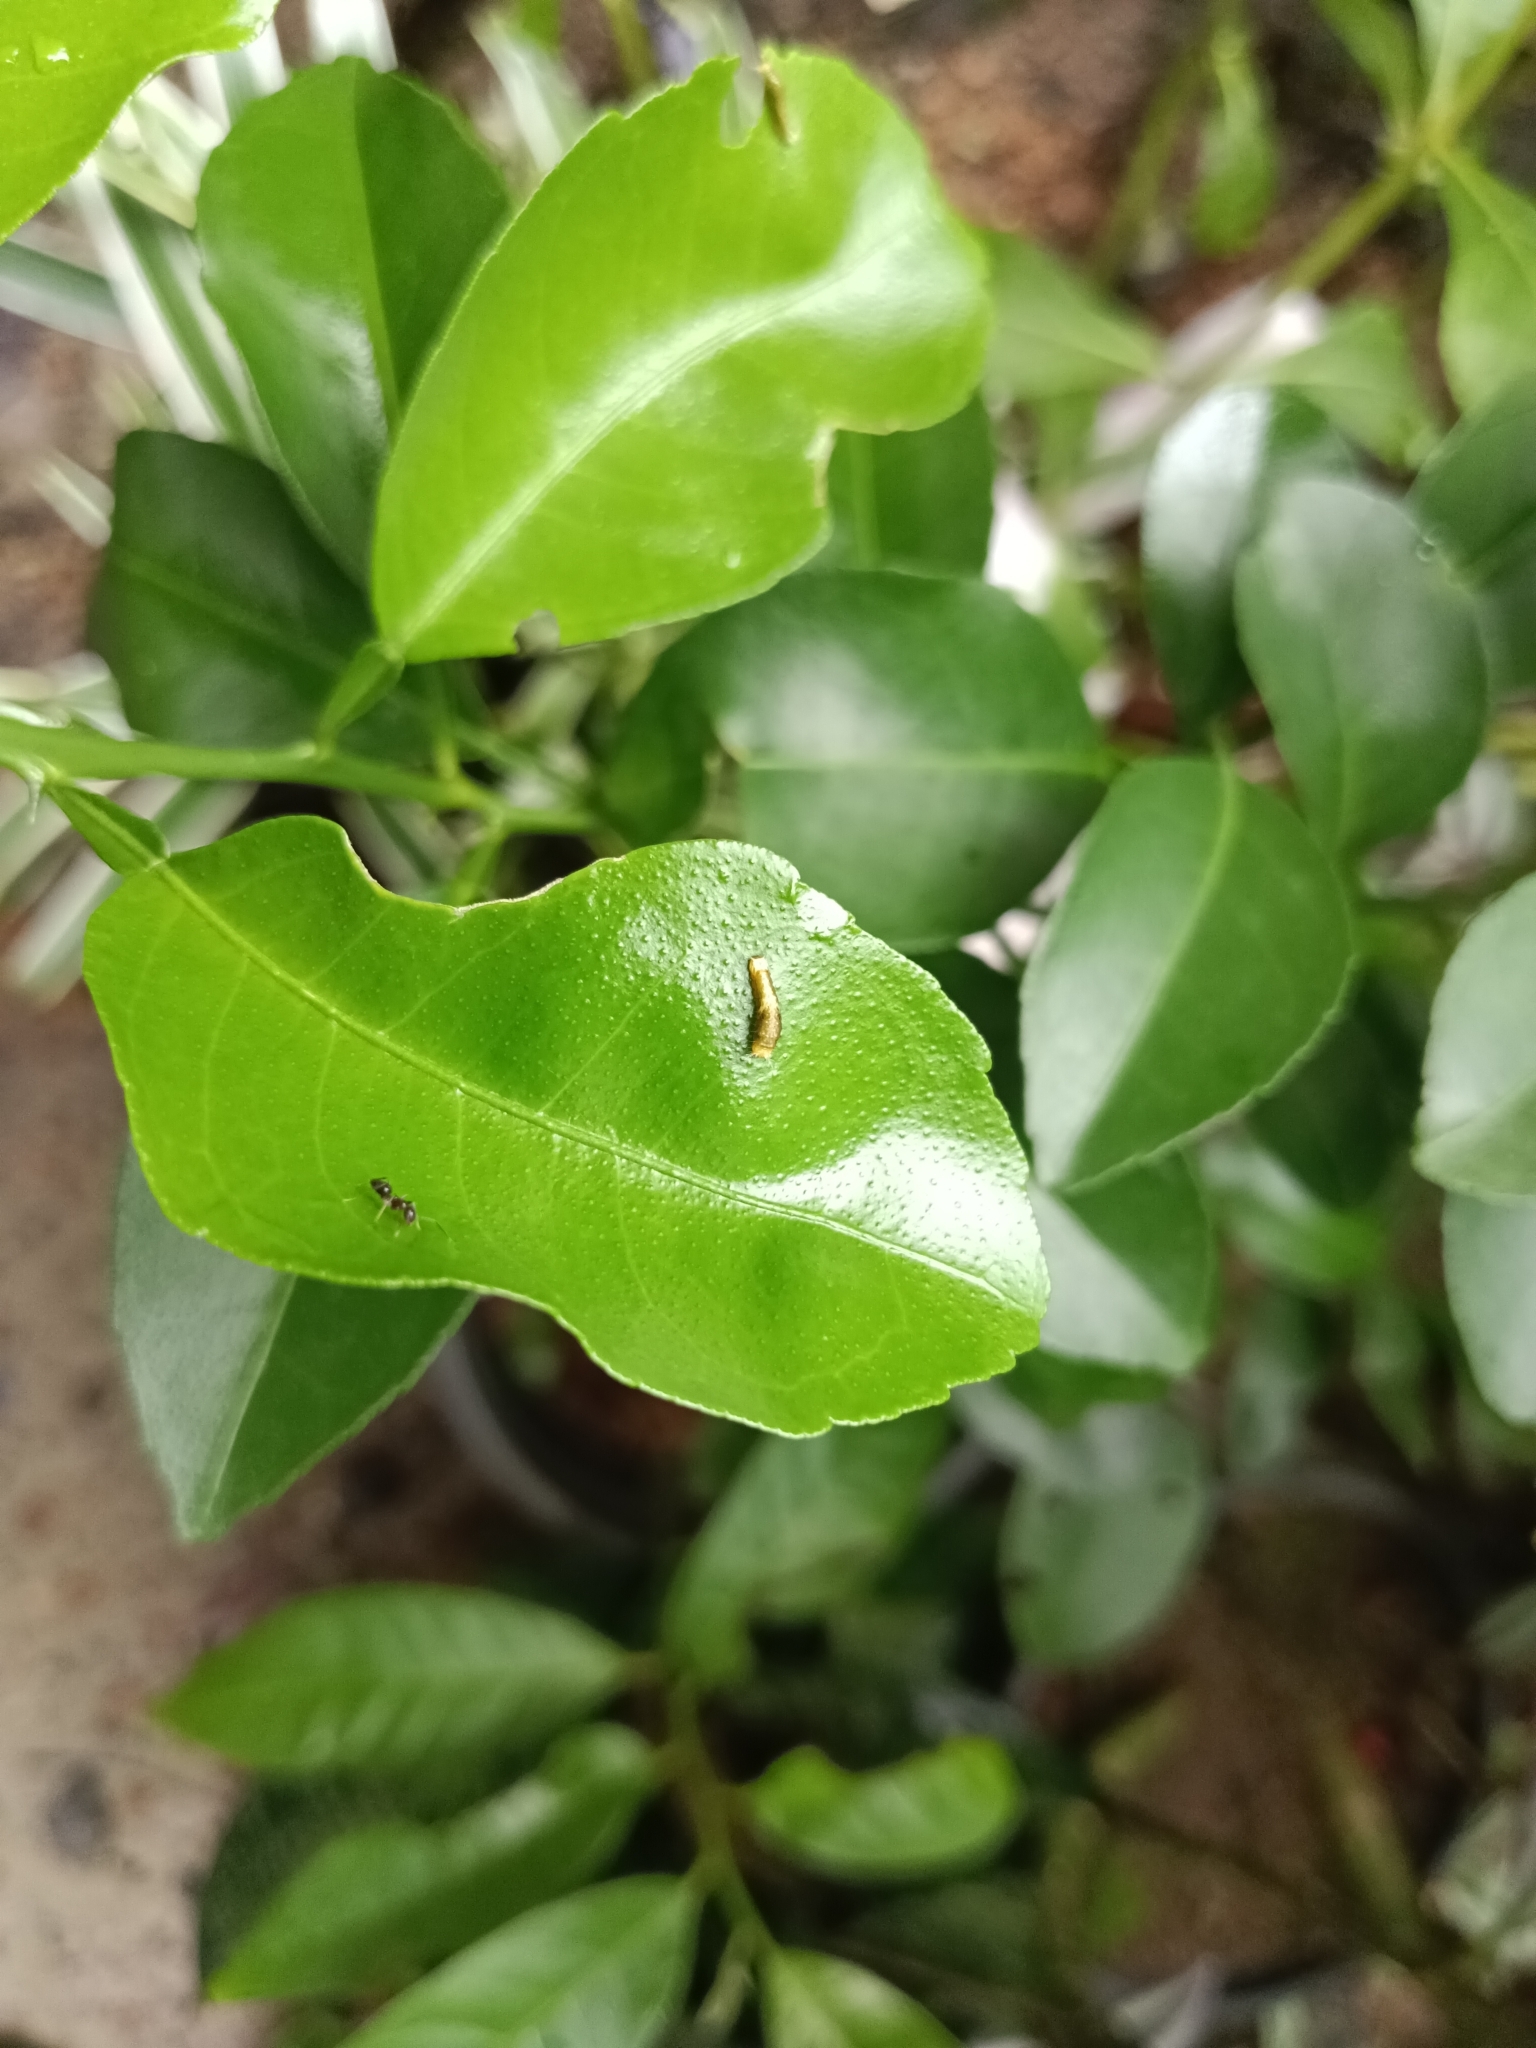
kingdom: Animalia
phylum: Arthropoda
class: Insecta
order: Lepidoptera
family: Papilionidae
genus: Papilio
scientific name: Papilio polytes
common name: Common mormon
